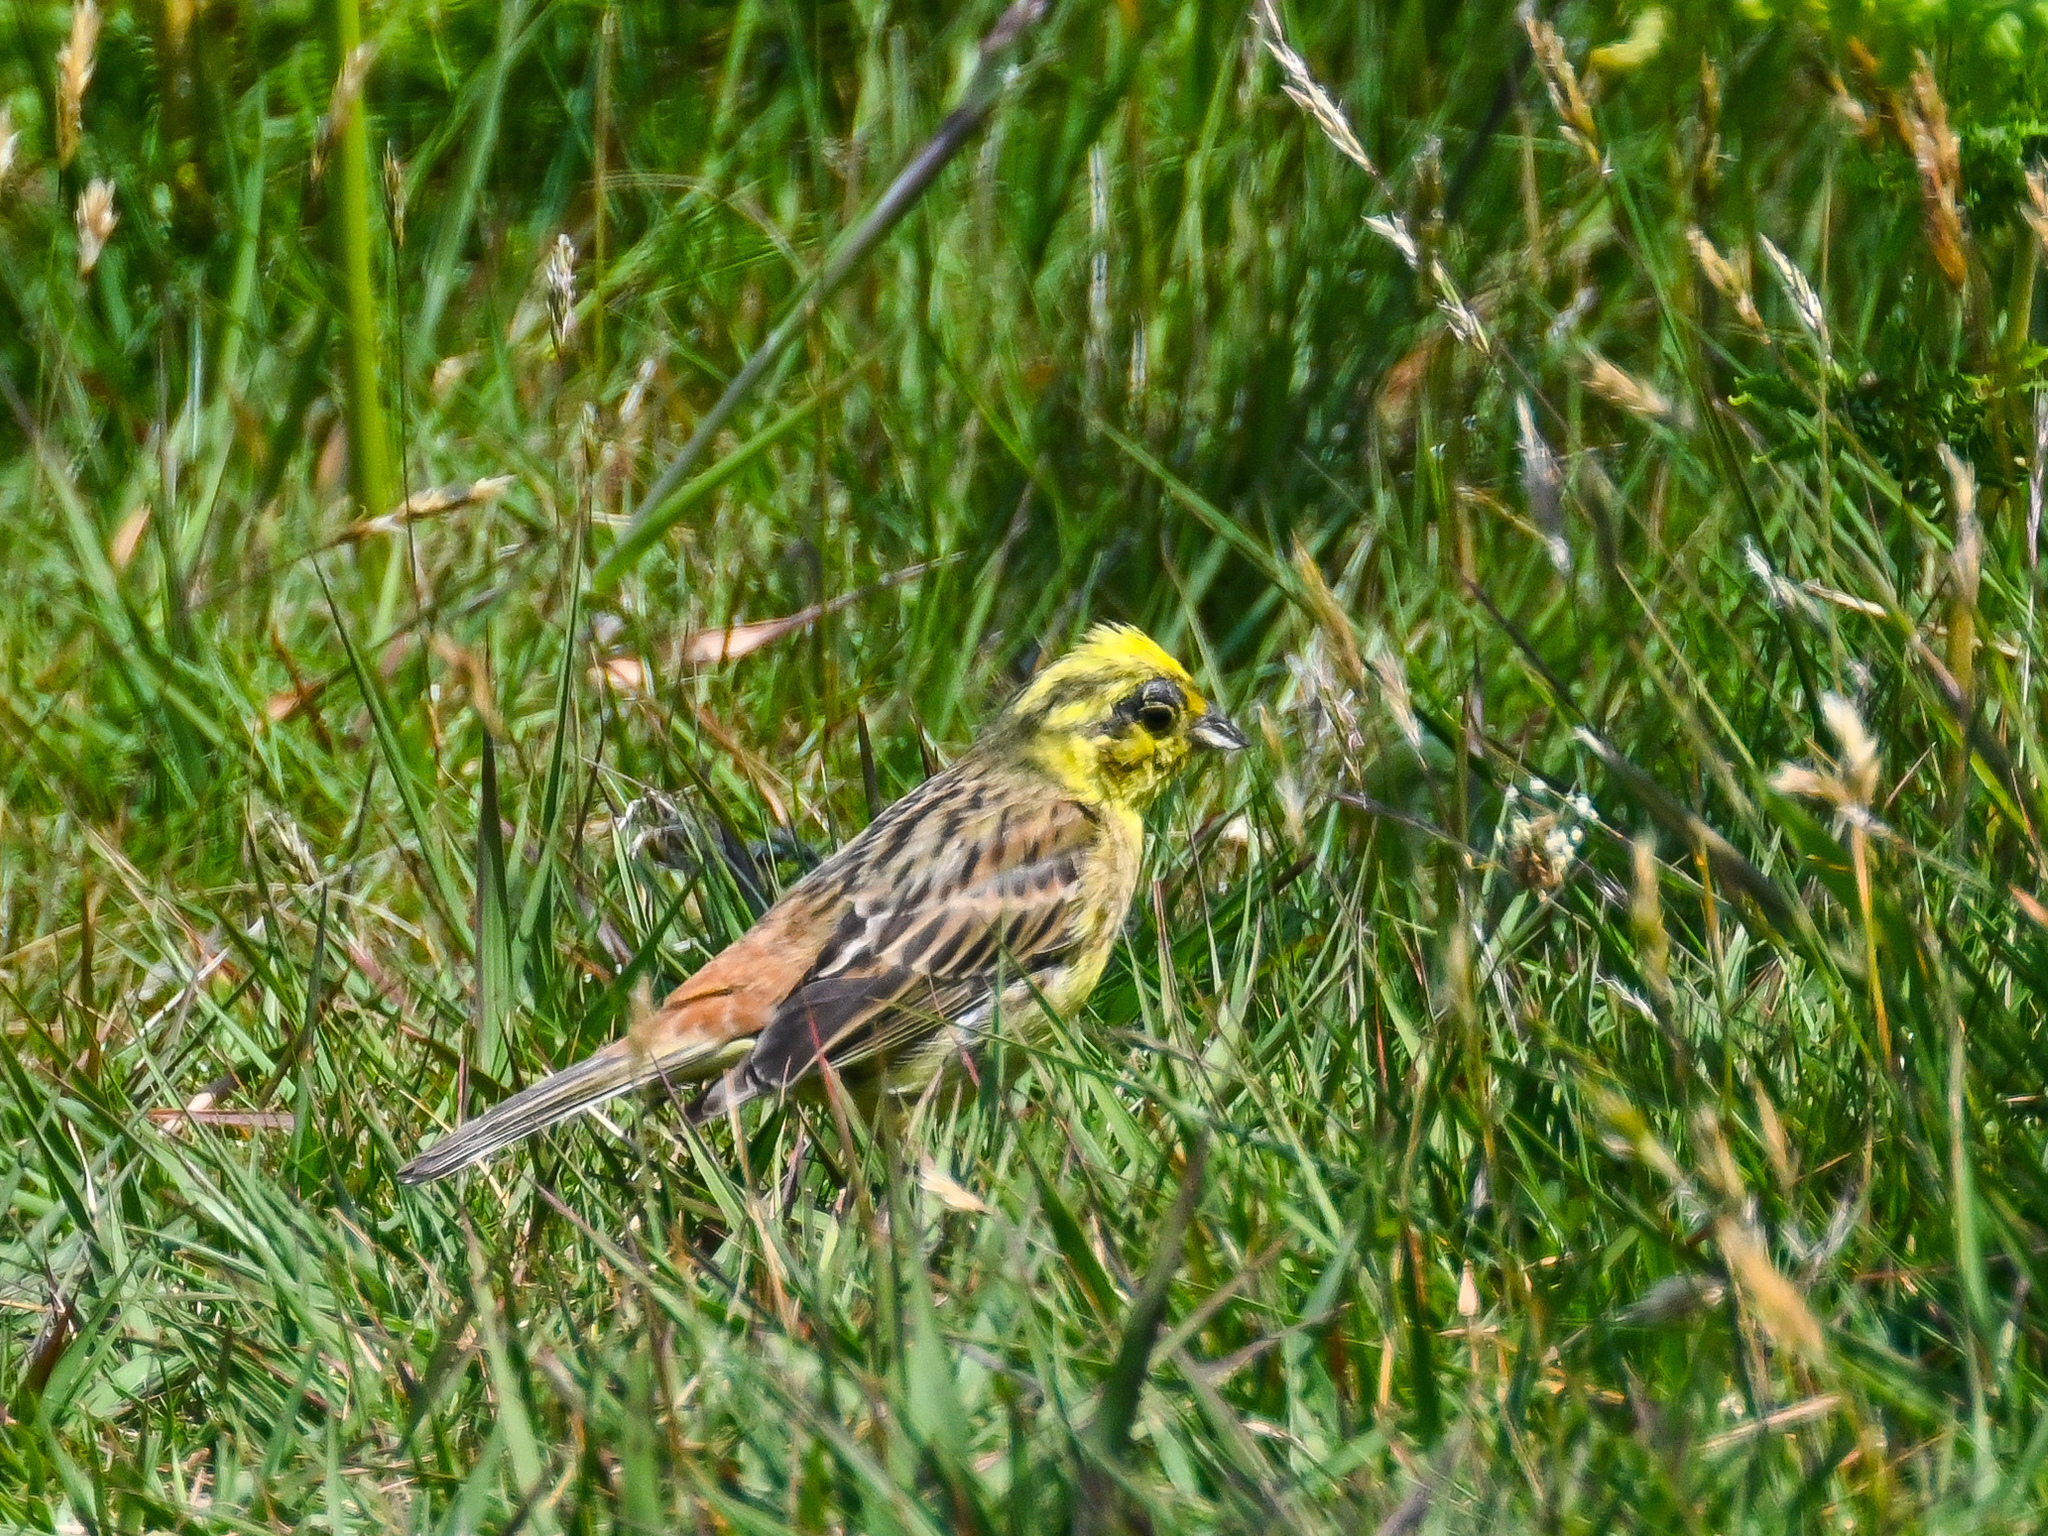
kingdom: Animalia
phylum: Chordata
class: Aves
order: Passeriformes
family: Emberizidae
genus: Emberiza
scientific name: Emberiza citrinella
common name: Yellowhammer
